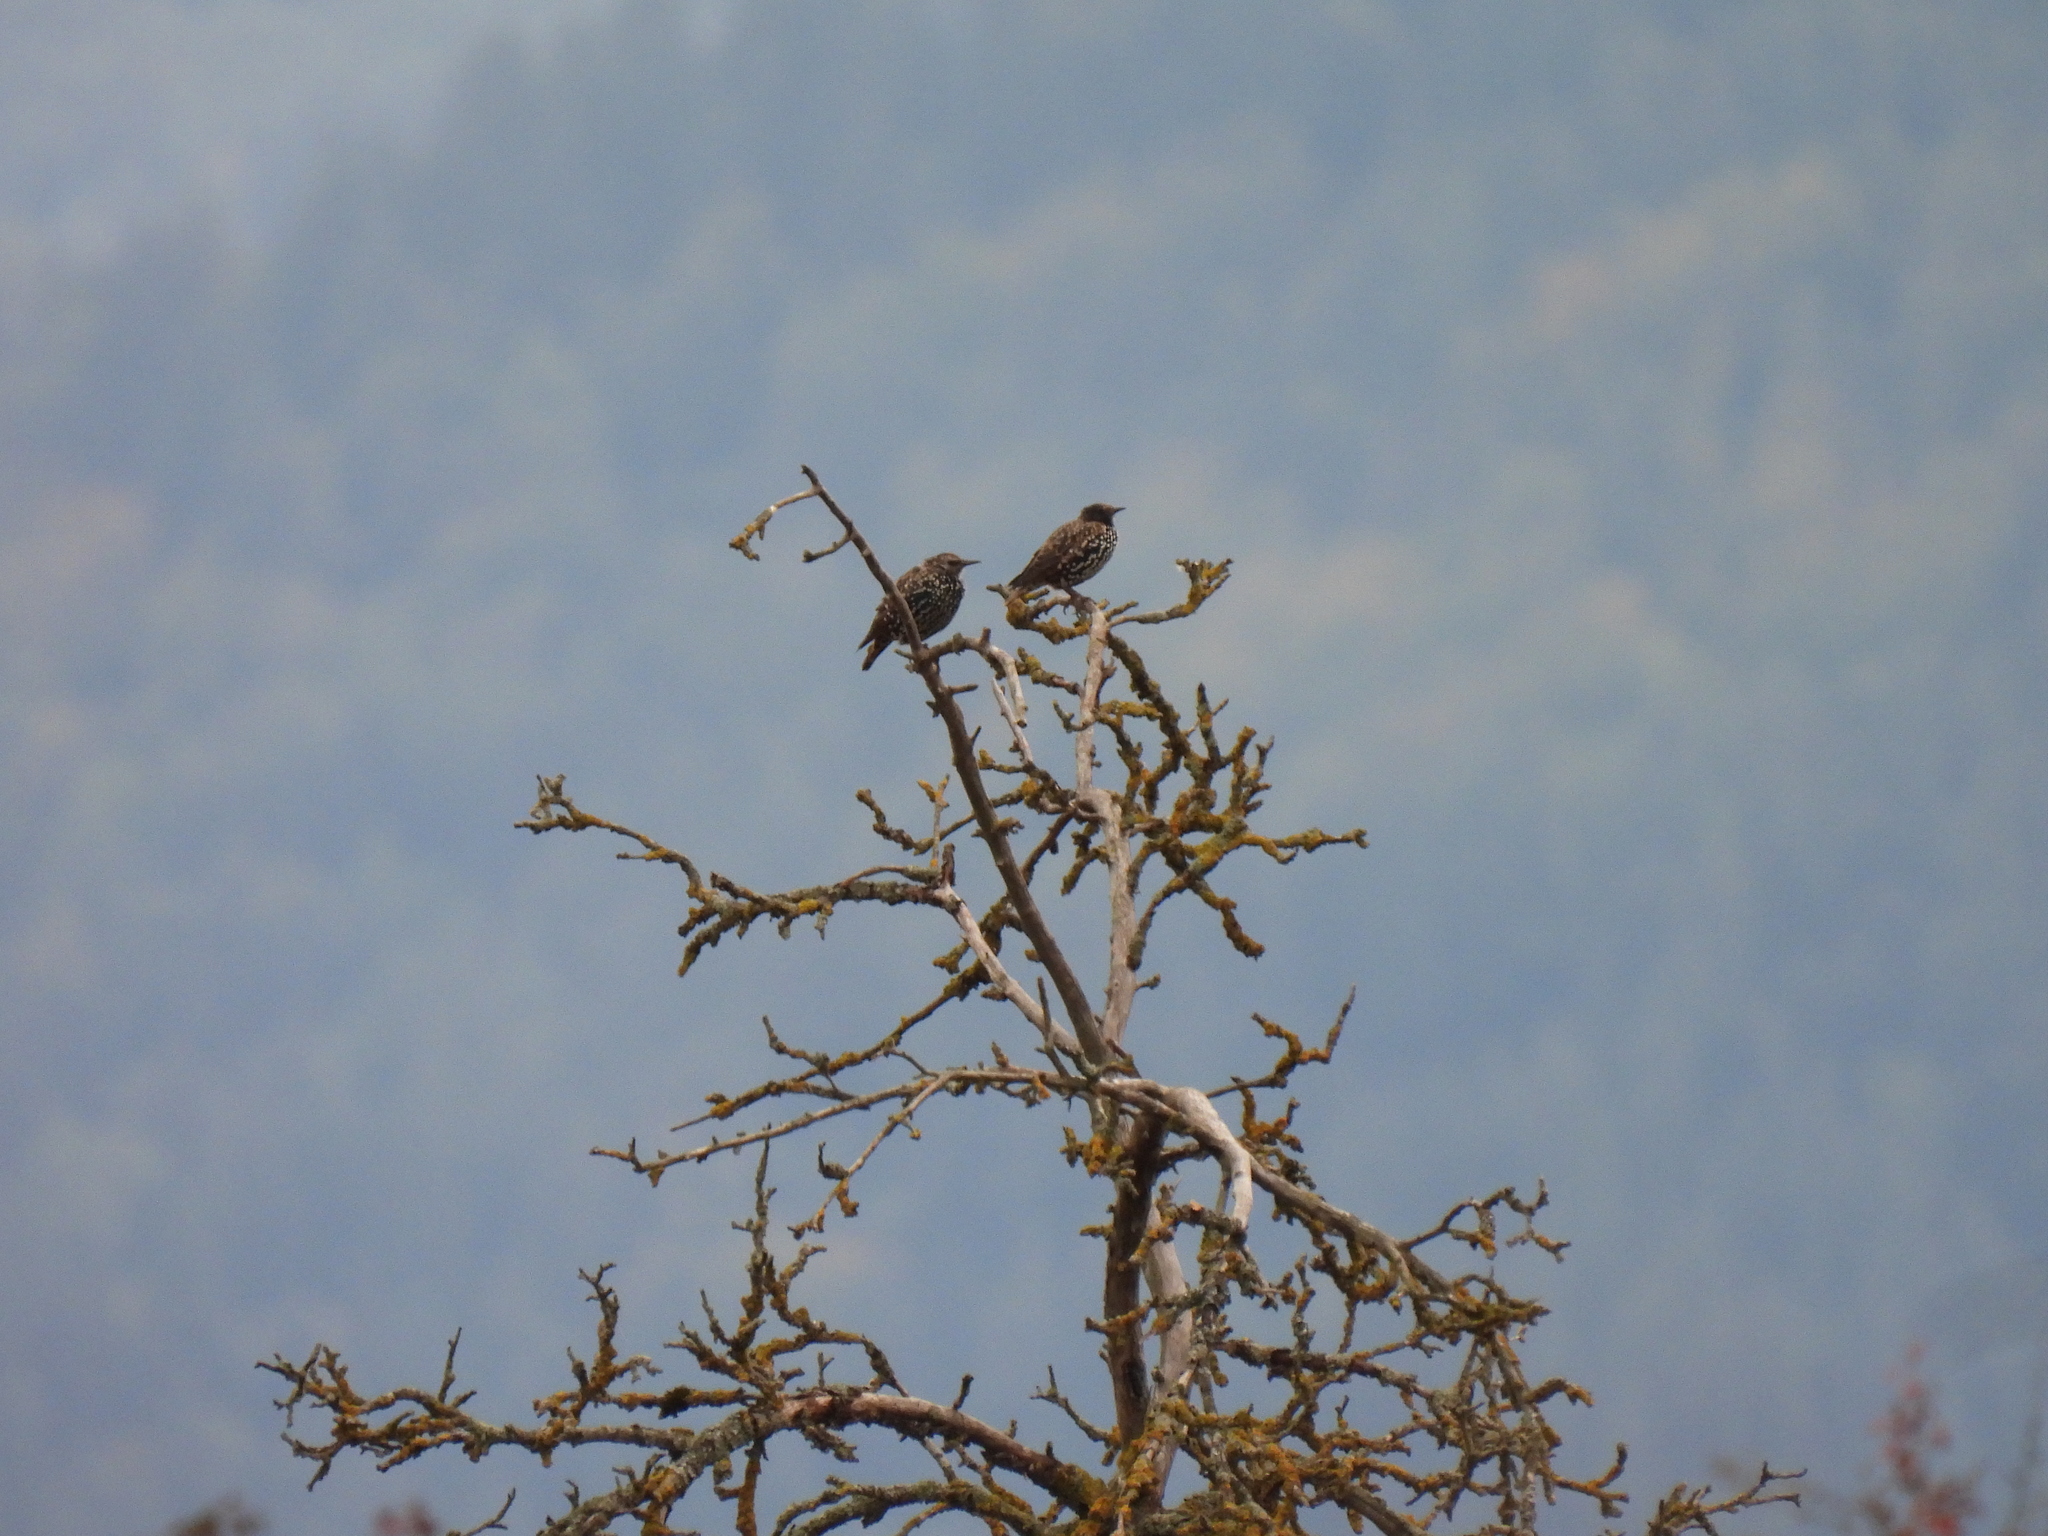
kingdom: Animalia
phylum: Chordata
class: Aves
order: Passeriformes
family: Sturnidae
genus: Sturnus
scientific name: Sturnus vulgaris
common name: Common starling
